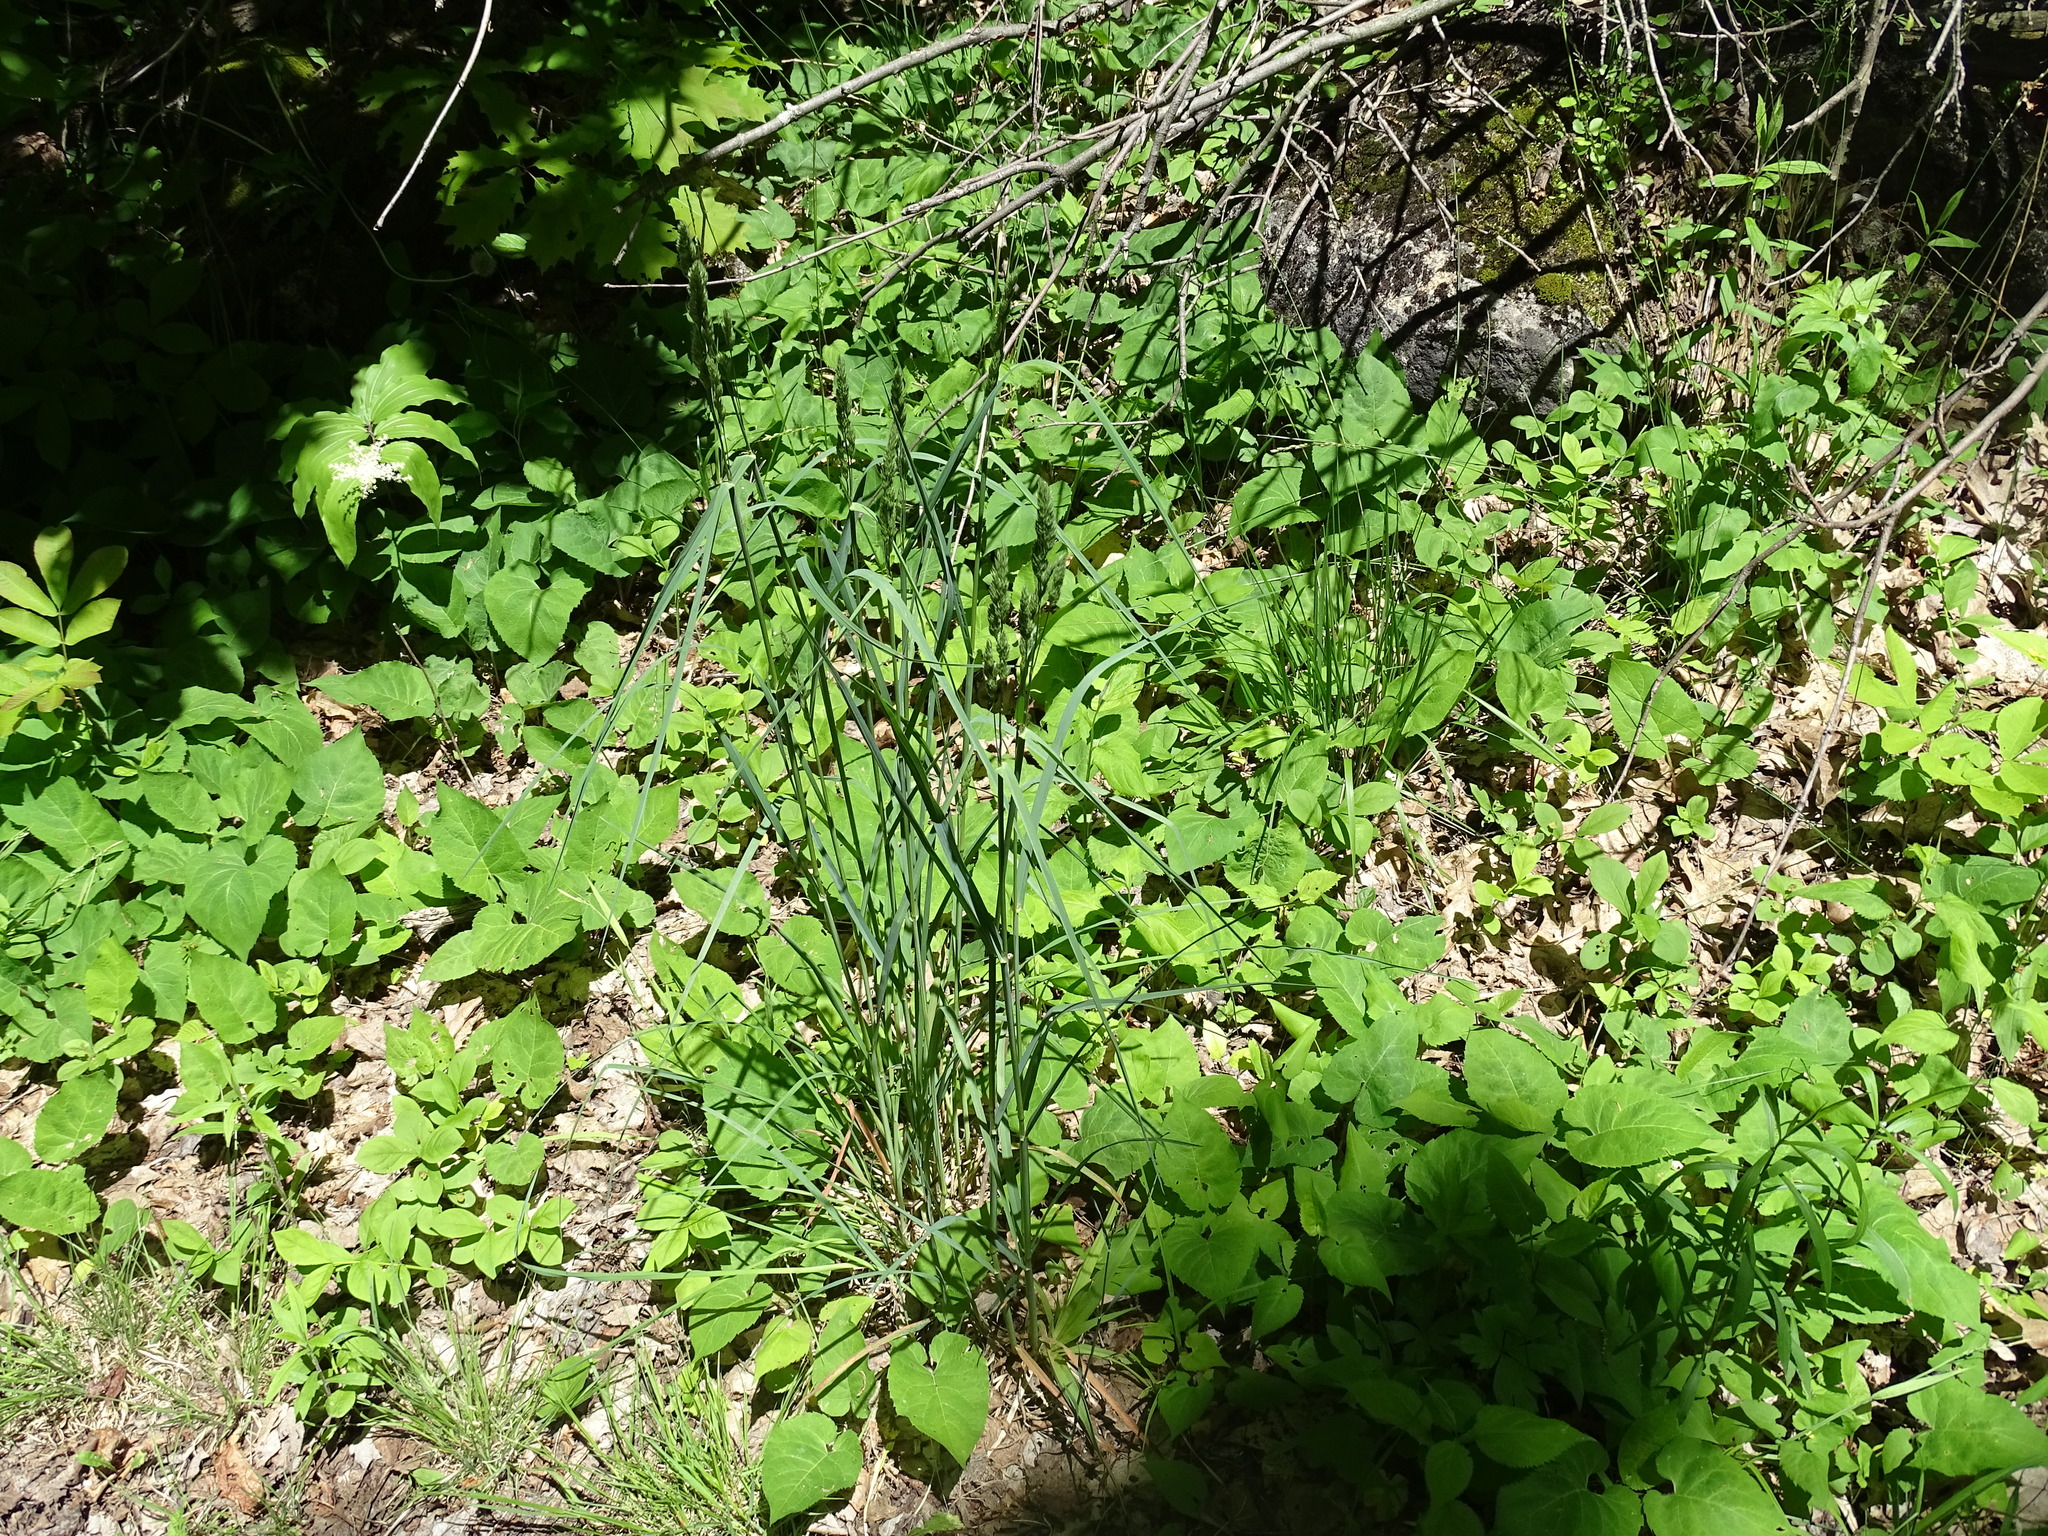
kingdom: Plantae
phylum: Tracheophyta
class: Liliopsida
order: Poales
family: Poaceae
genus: Dactylis
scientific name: Dactylis glomerata
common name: Orchardgrass
